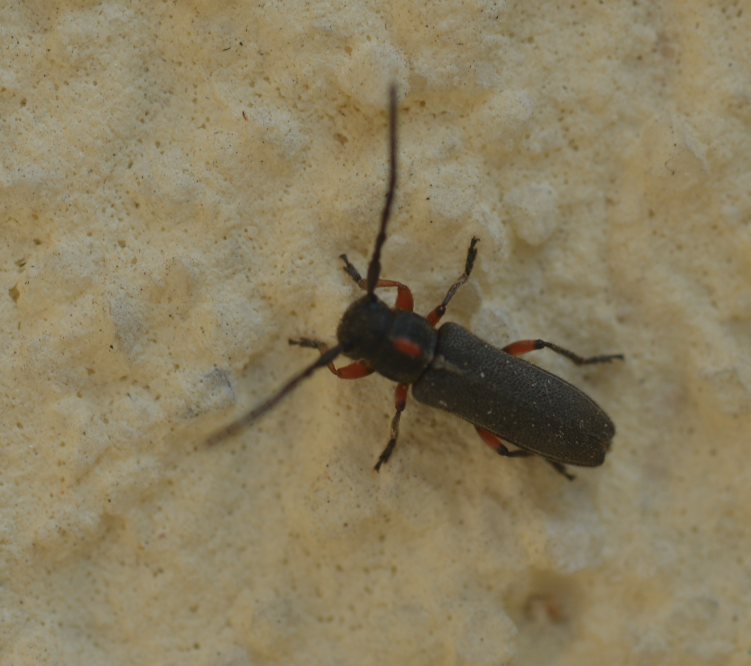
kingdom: Animalia
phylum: Arthropoda
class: Insecta
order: Coleoptera
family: Cerambycidae
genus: Phytoecia
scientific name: Phytoecia pustulata
